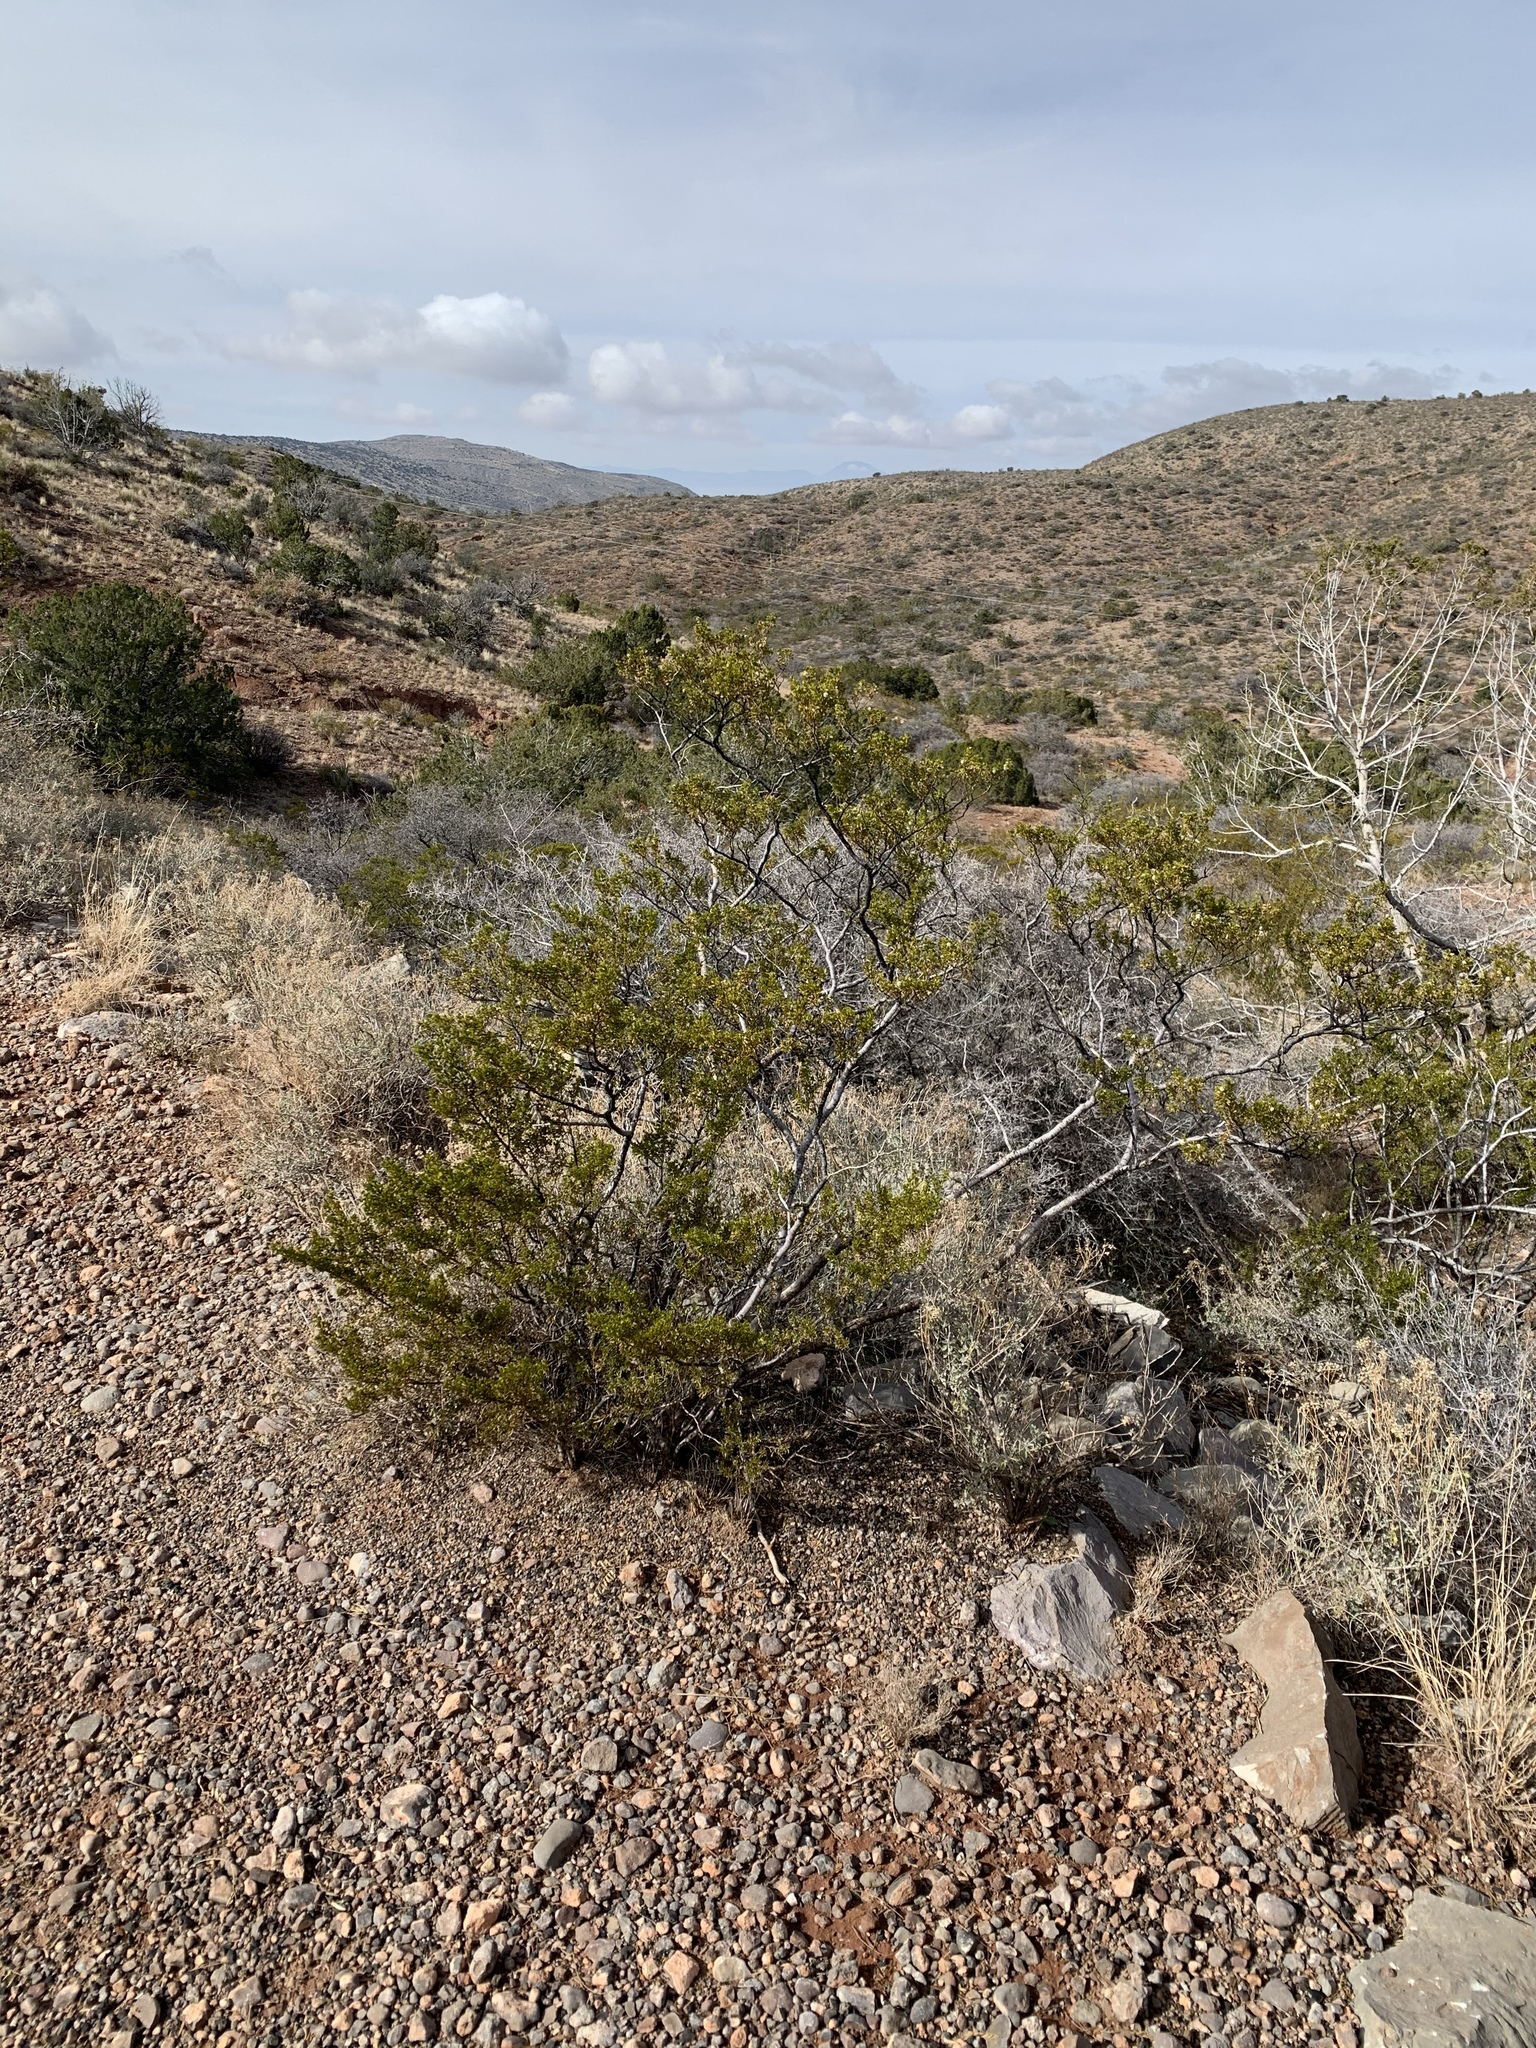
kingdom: Plantae
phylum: Tracheophyta
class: Magnoliopsida
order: Zygophyllales
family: Zygophyllaceae
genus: Larrea
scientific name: Larrea tridentata
